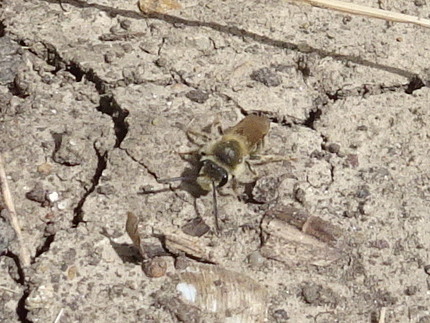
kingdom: Animalia
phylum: Arthropoda
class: Insecta
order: Hymenoptera
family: Colletidae
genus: Colletes
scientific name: Colletes inaequalis
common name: Unequal cellophane bee
